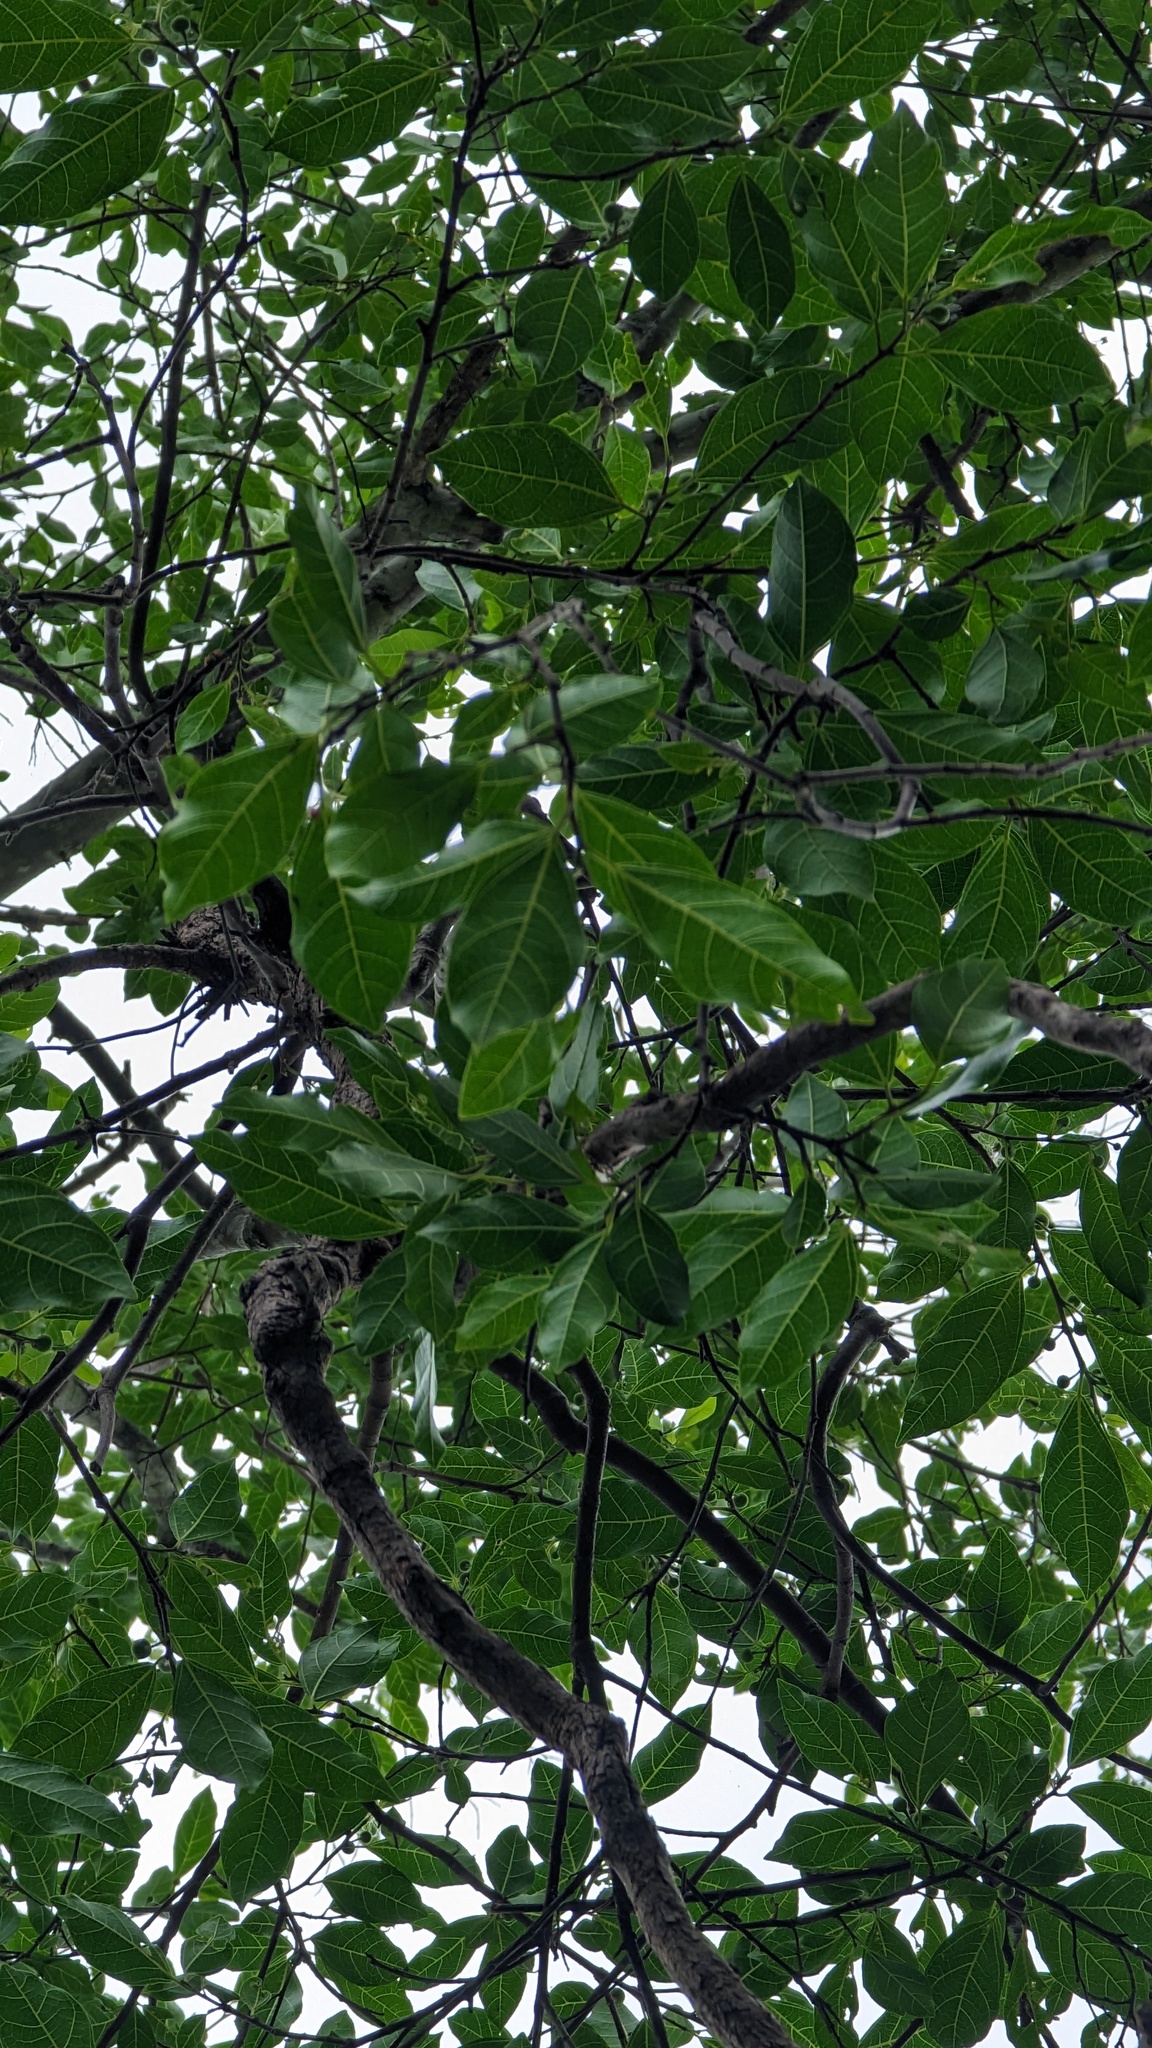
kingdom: Plantae
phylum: Tracheophyta
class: Magnoliopsida
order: Rosales
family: Moraceae
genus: Ficus
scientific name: Ficus fraseri
